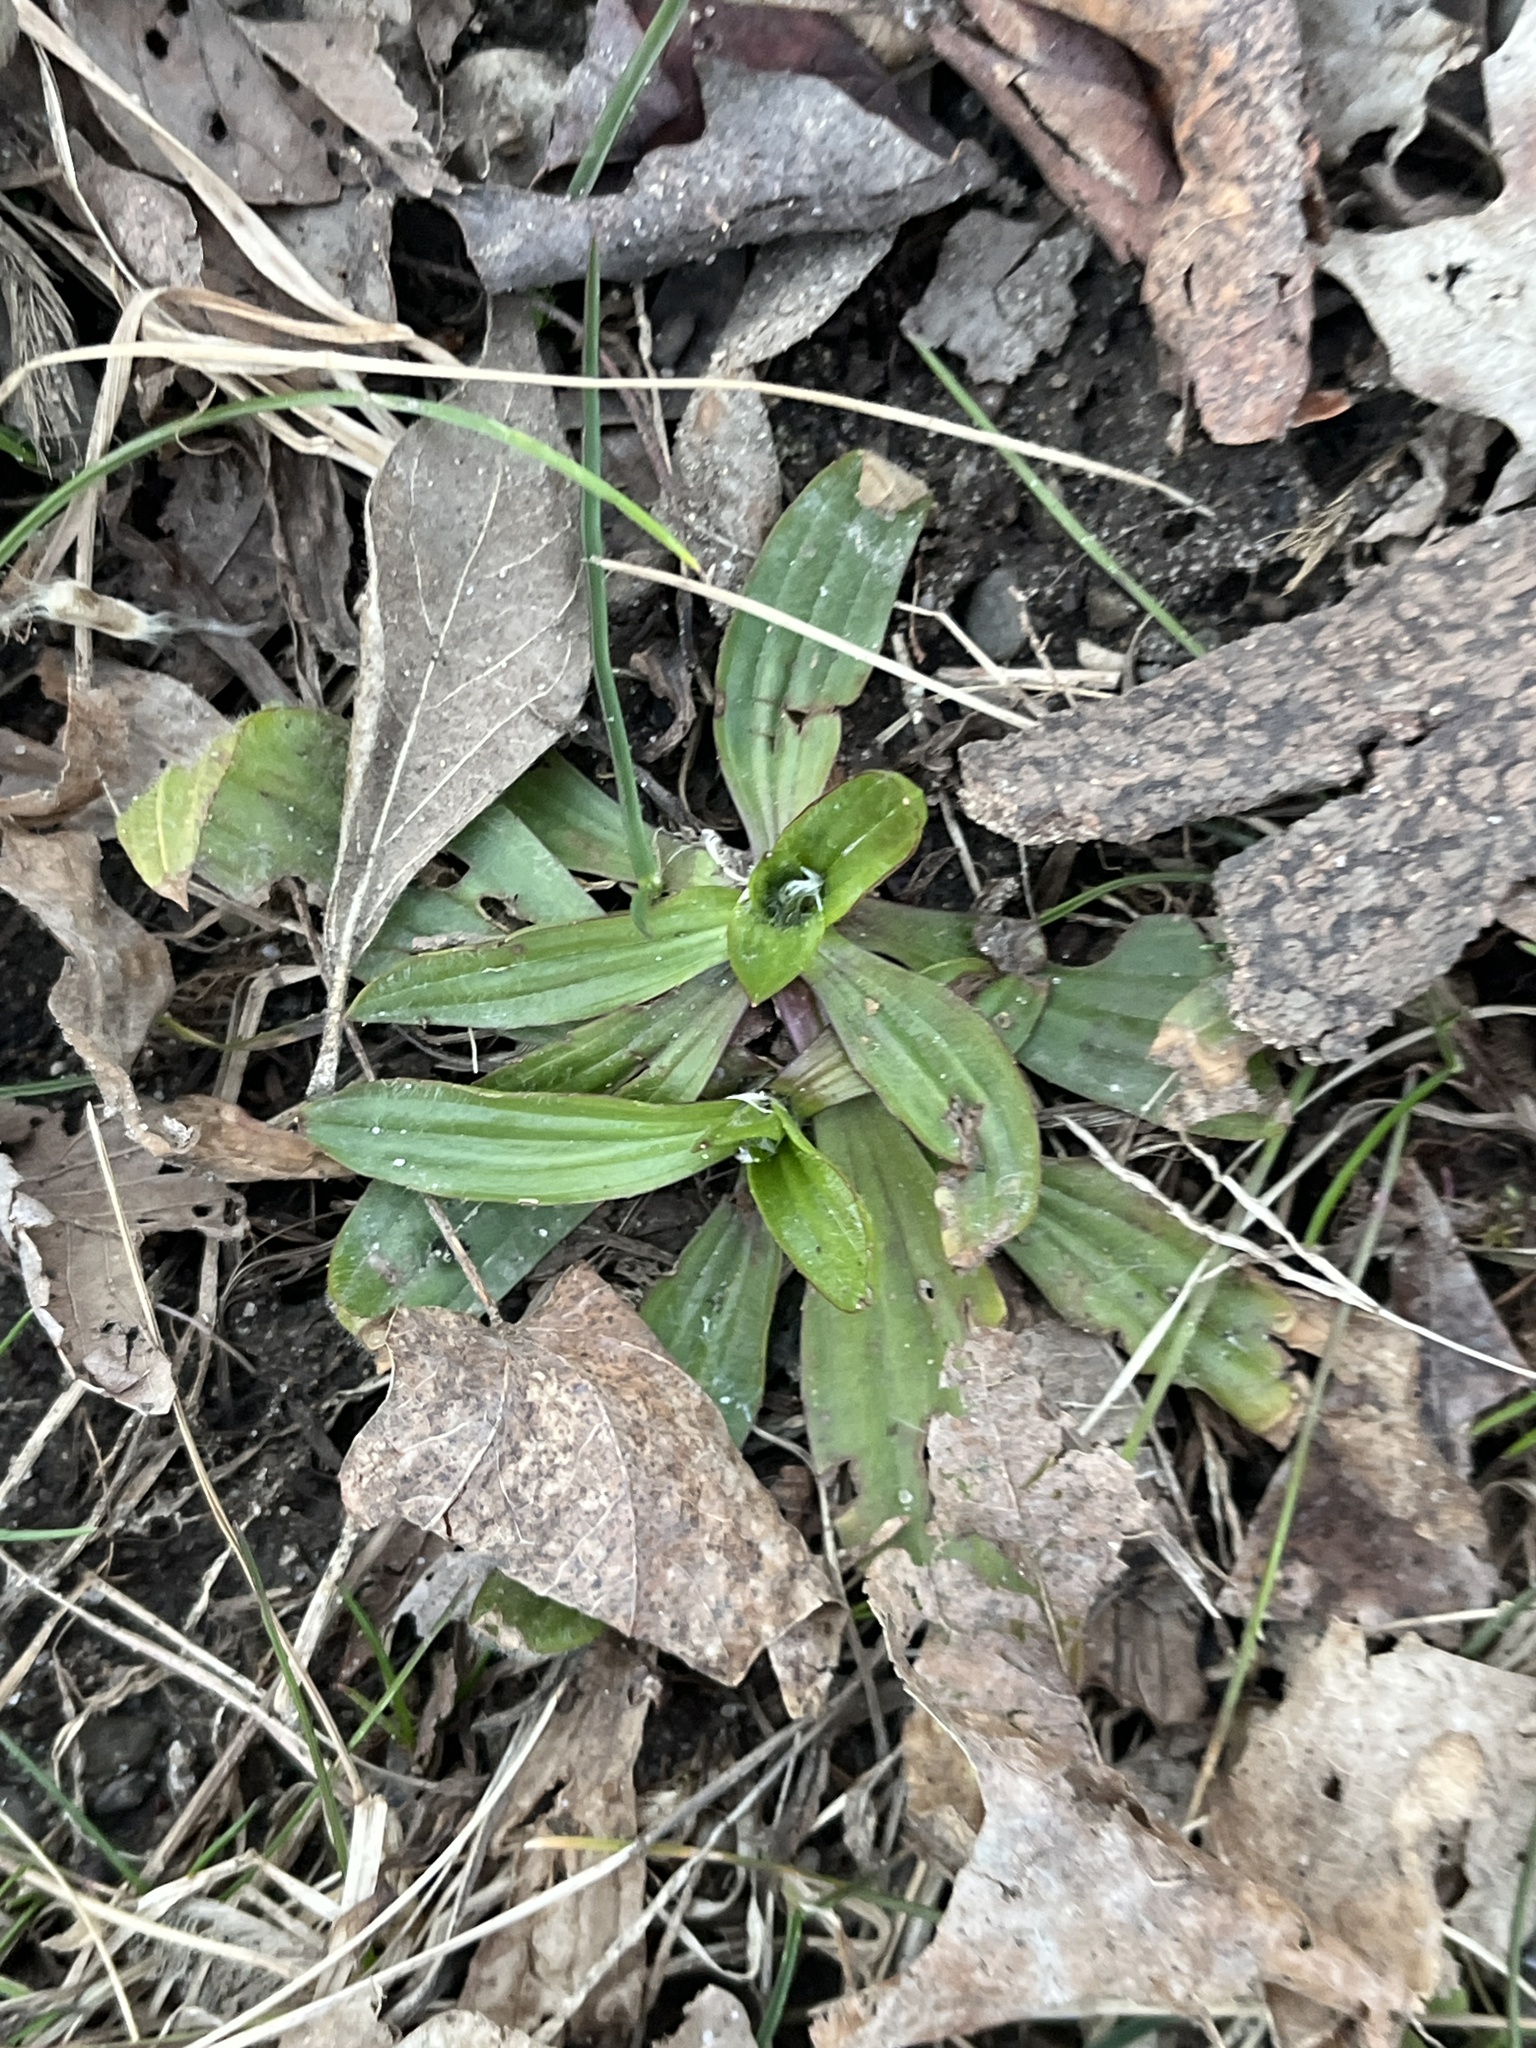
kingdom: Plantae
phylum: Tracheophyta
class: Magnoliopsida
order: Lamiales
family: Plantaginaceae
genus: Plantago
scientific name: Plantago lanceolata
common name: Ribwort plantain
